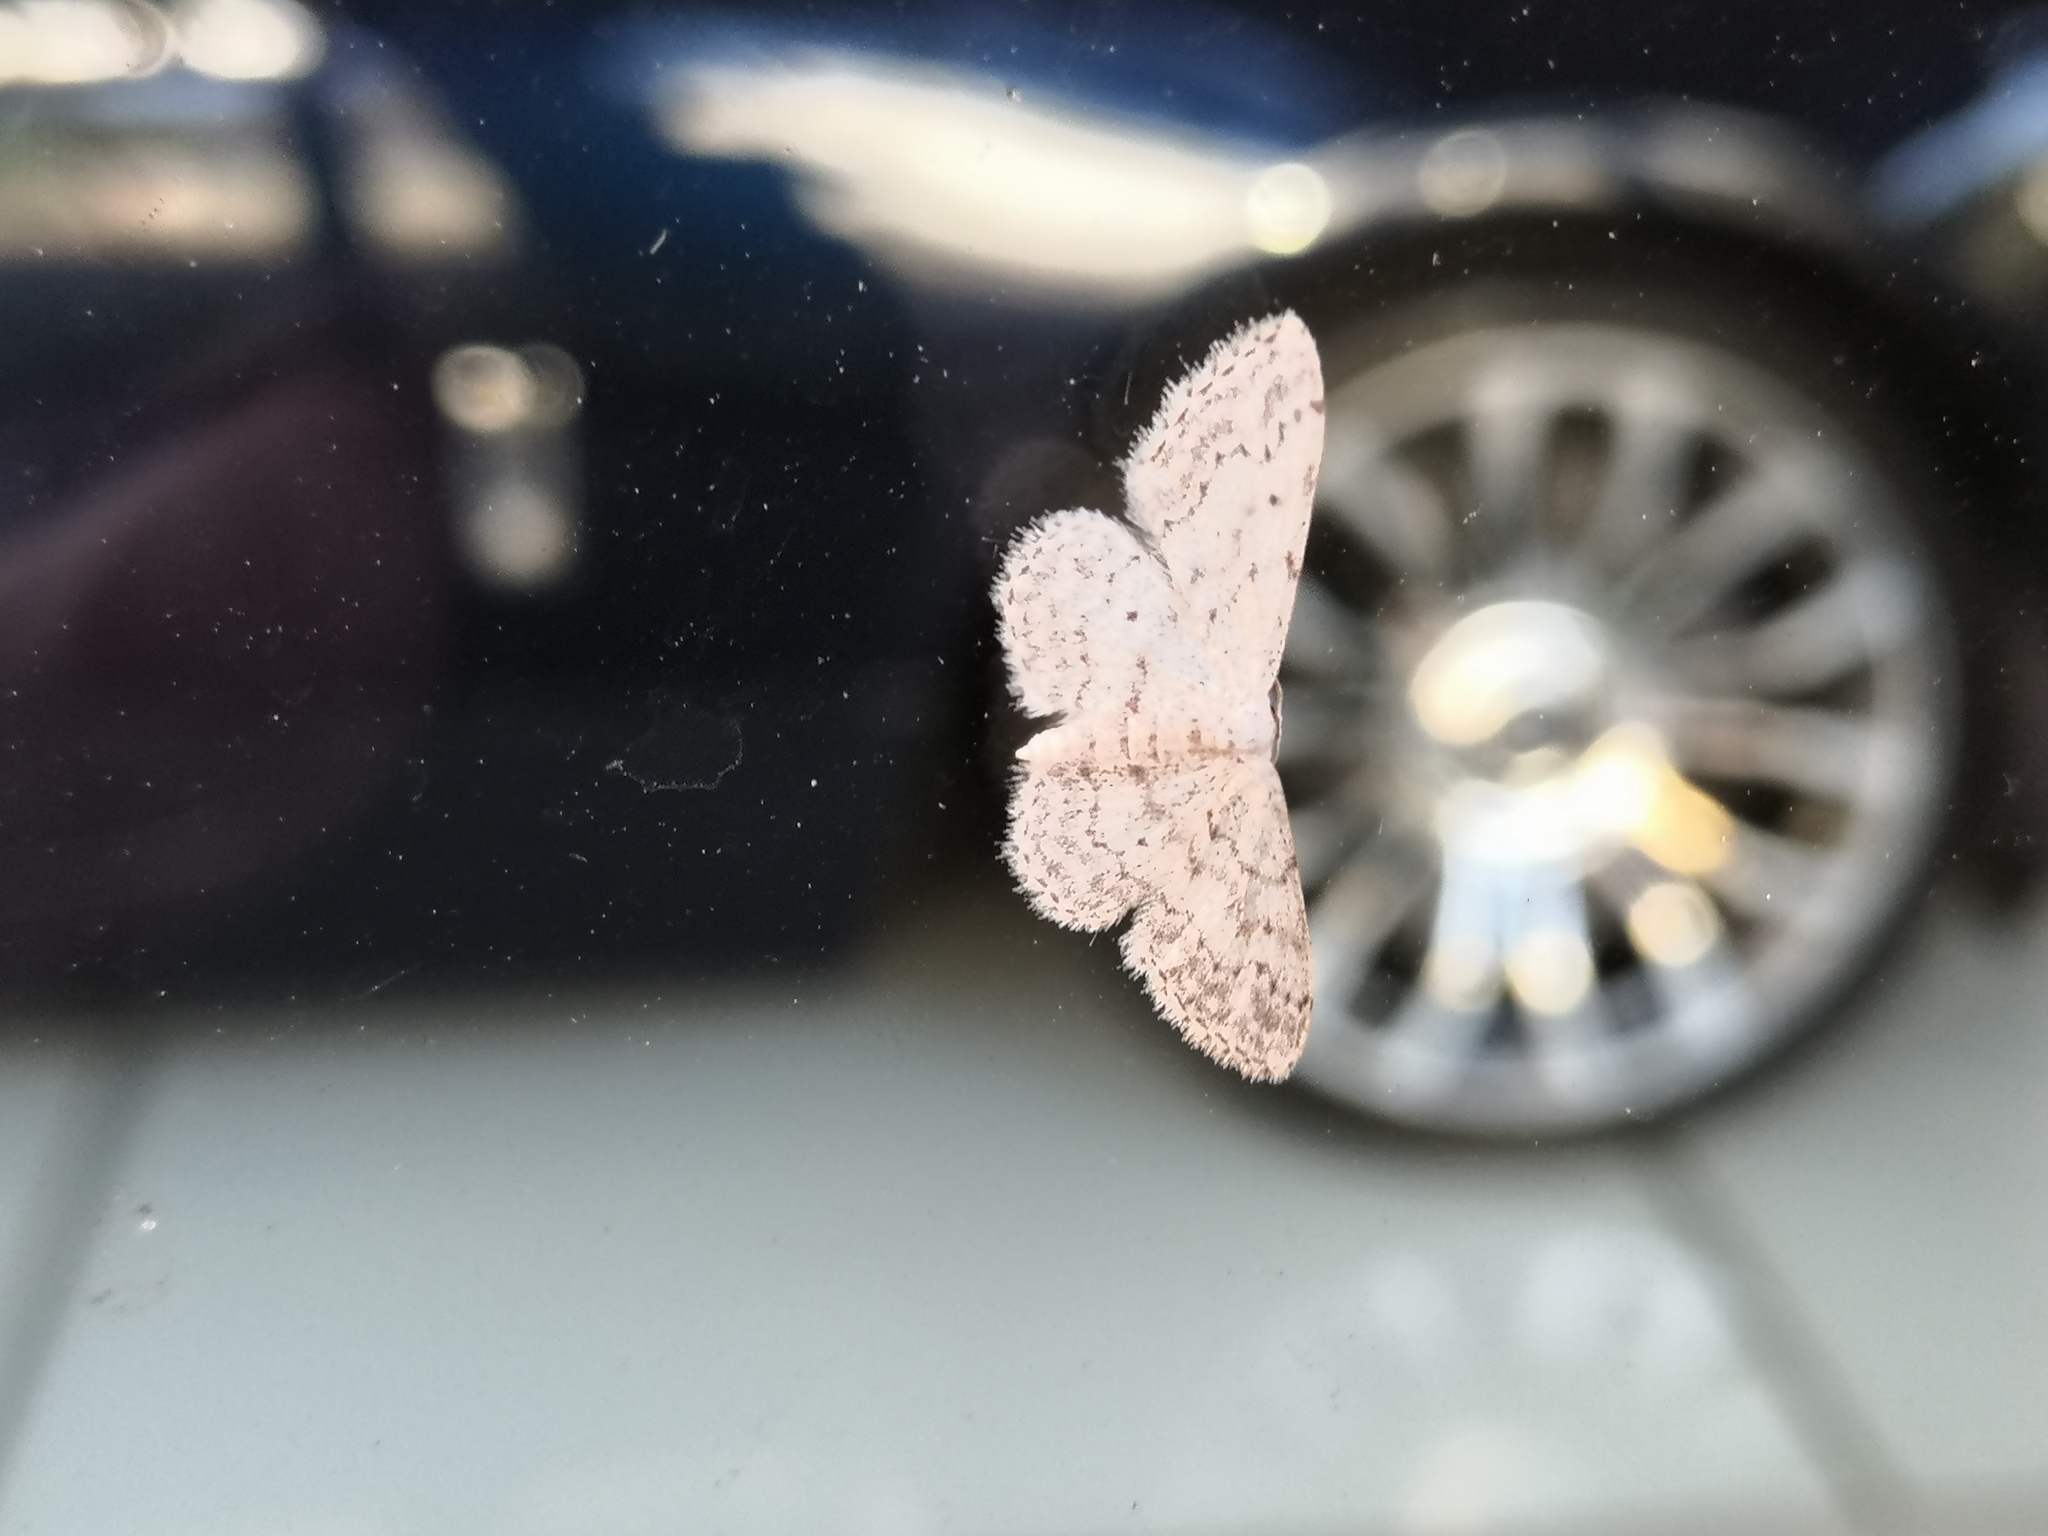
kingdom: Animalia
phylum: Arthropoda
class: Insecta
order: Lepidoptera
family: Geometridae
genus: Idaea
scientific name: Idaea seriata
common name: Small dusty wave
